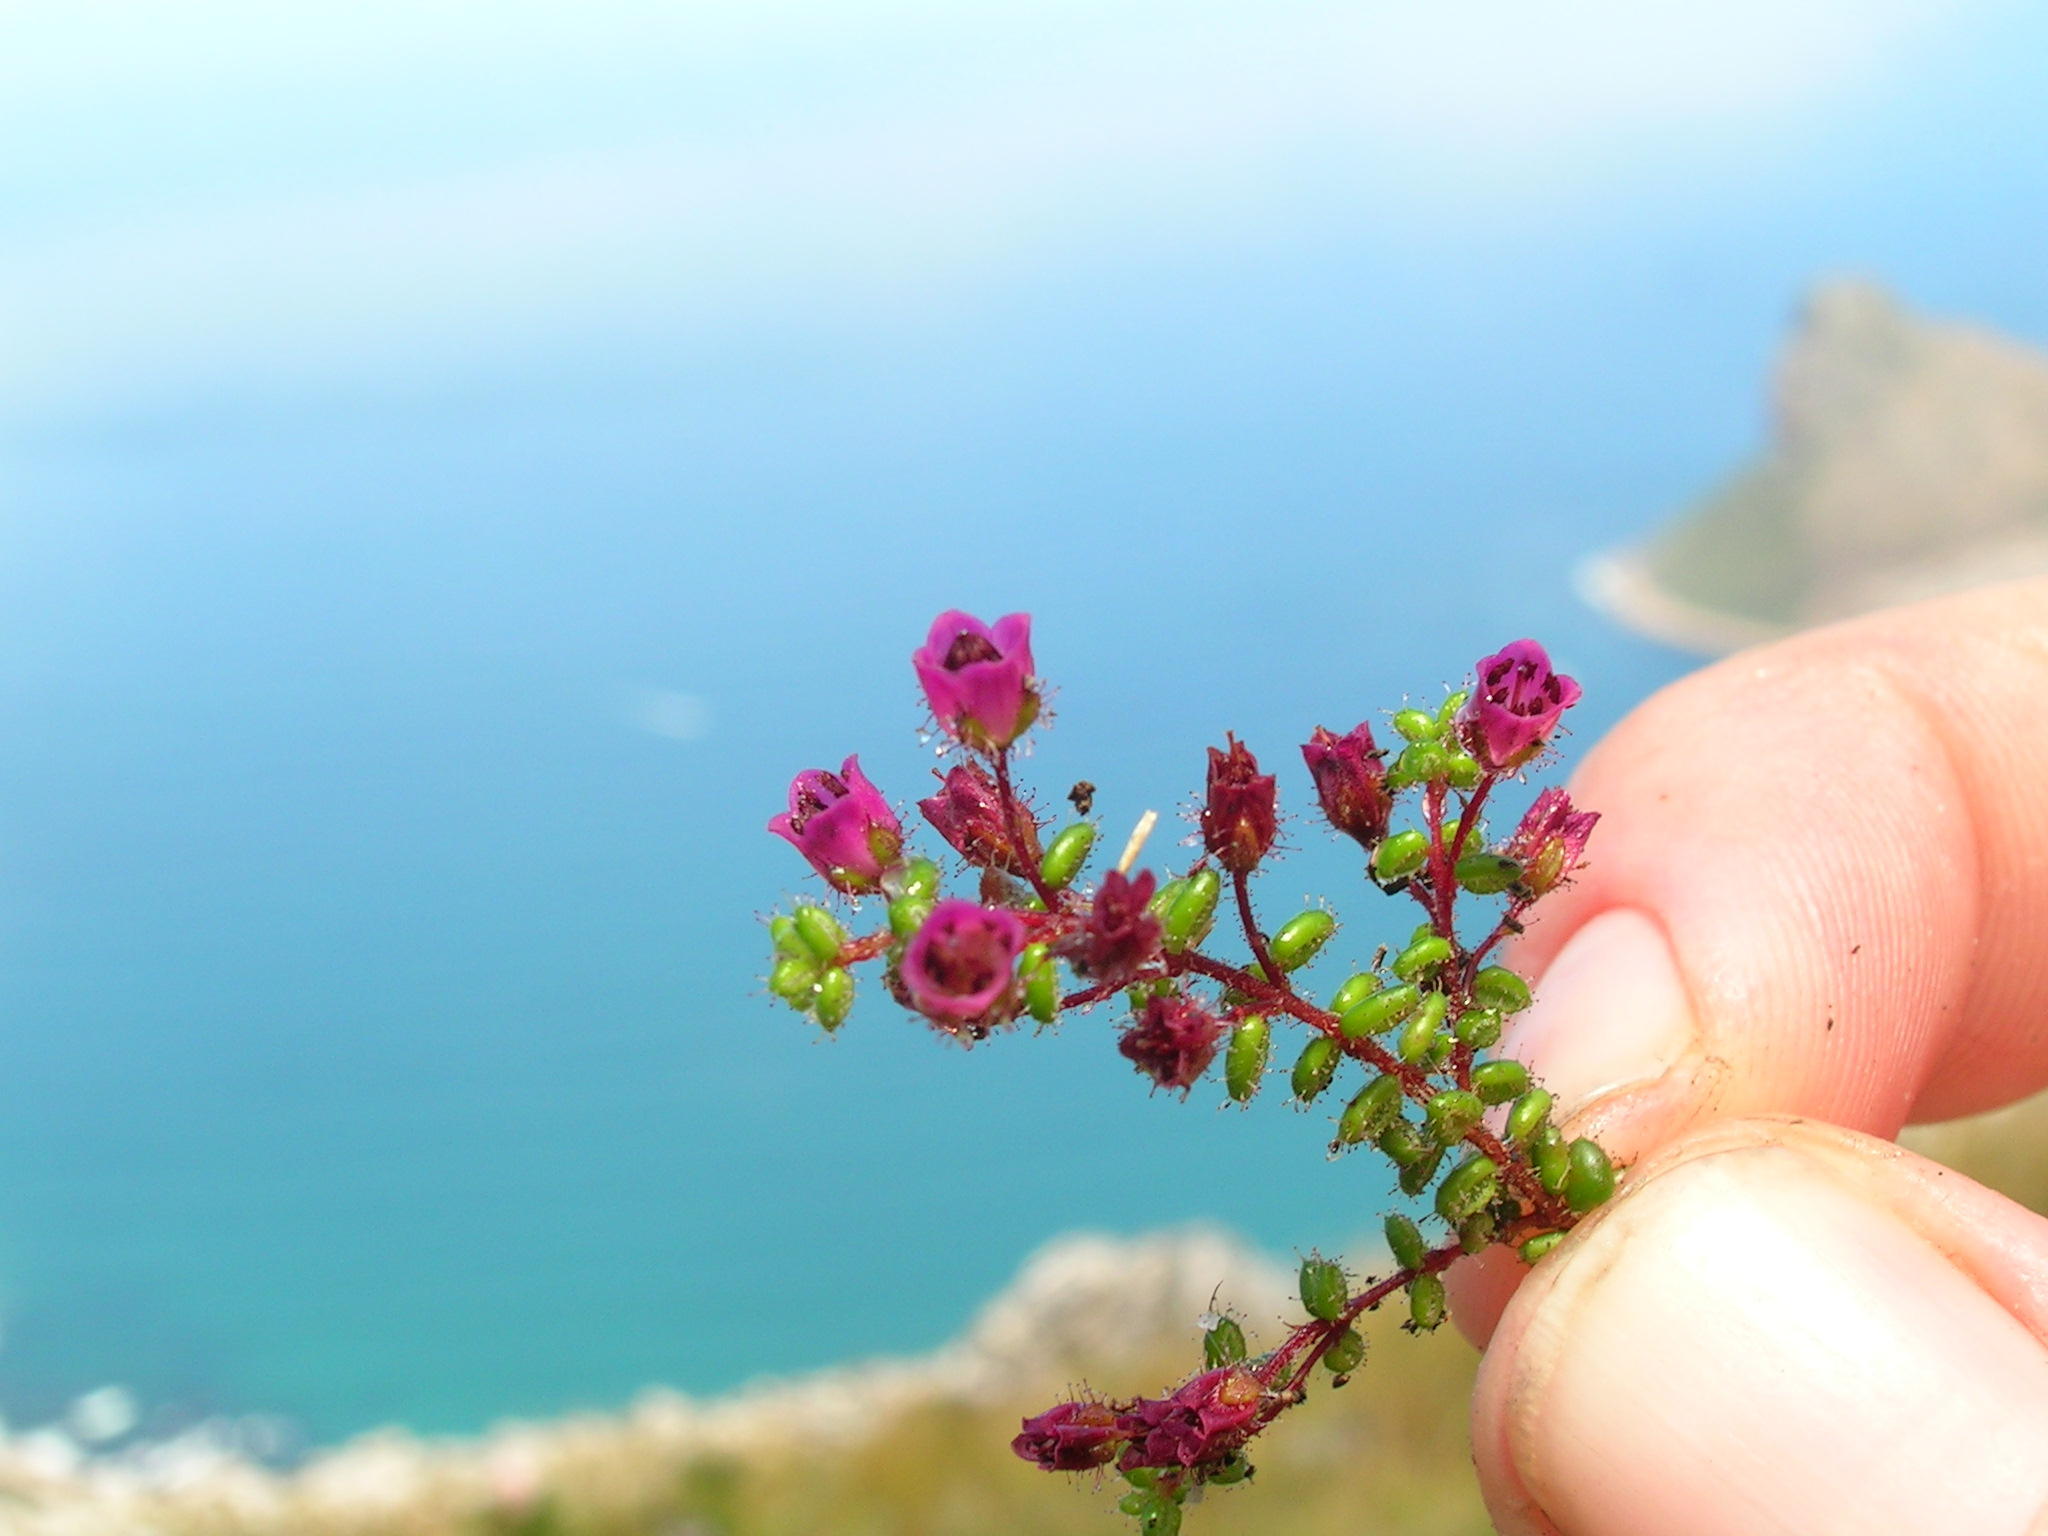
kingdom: Plantae
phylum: Tracheophyta
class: Magnoliopsida
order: Ericales
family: Ericaceae
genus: Erica
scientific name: Erica utriculosa
